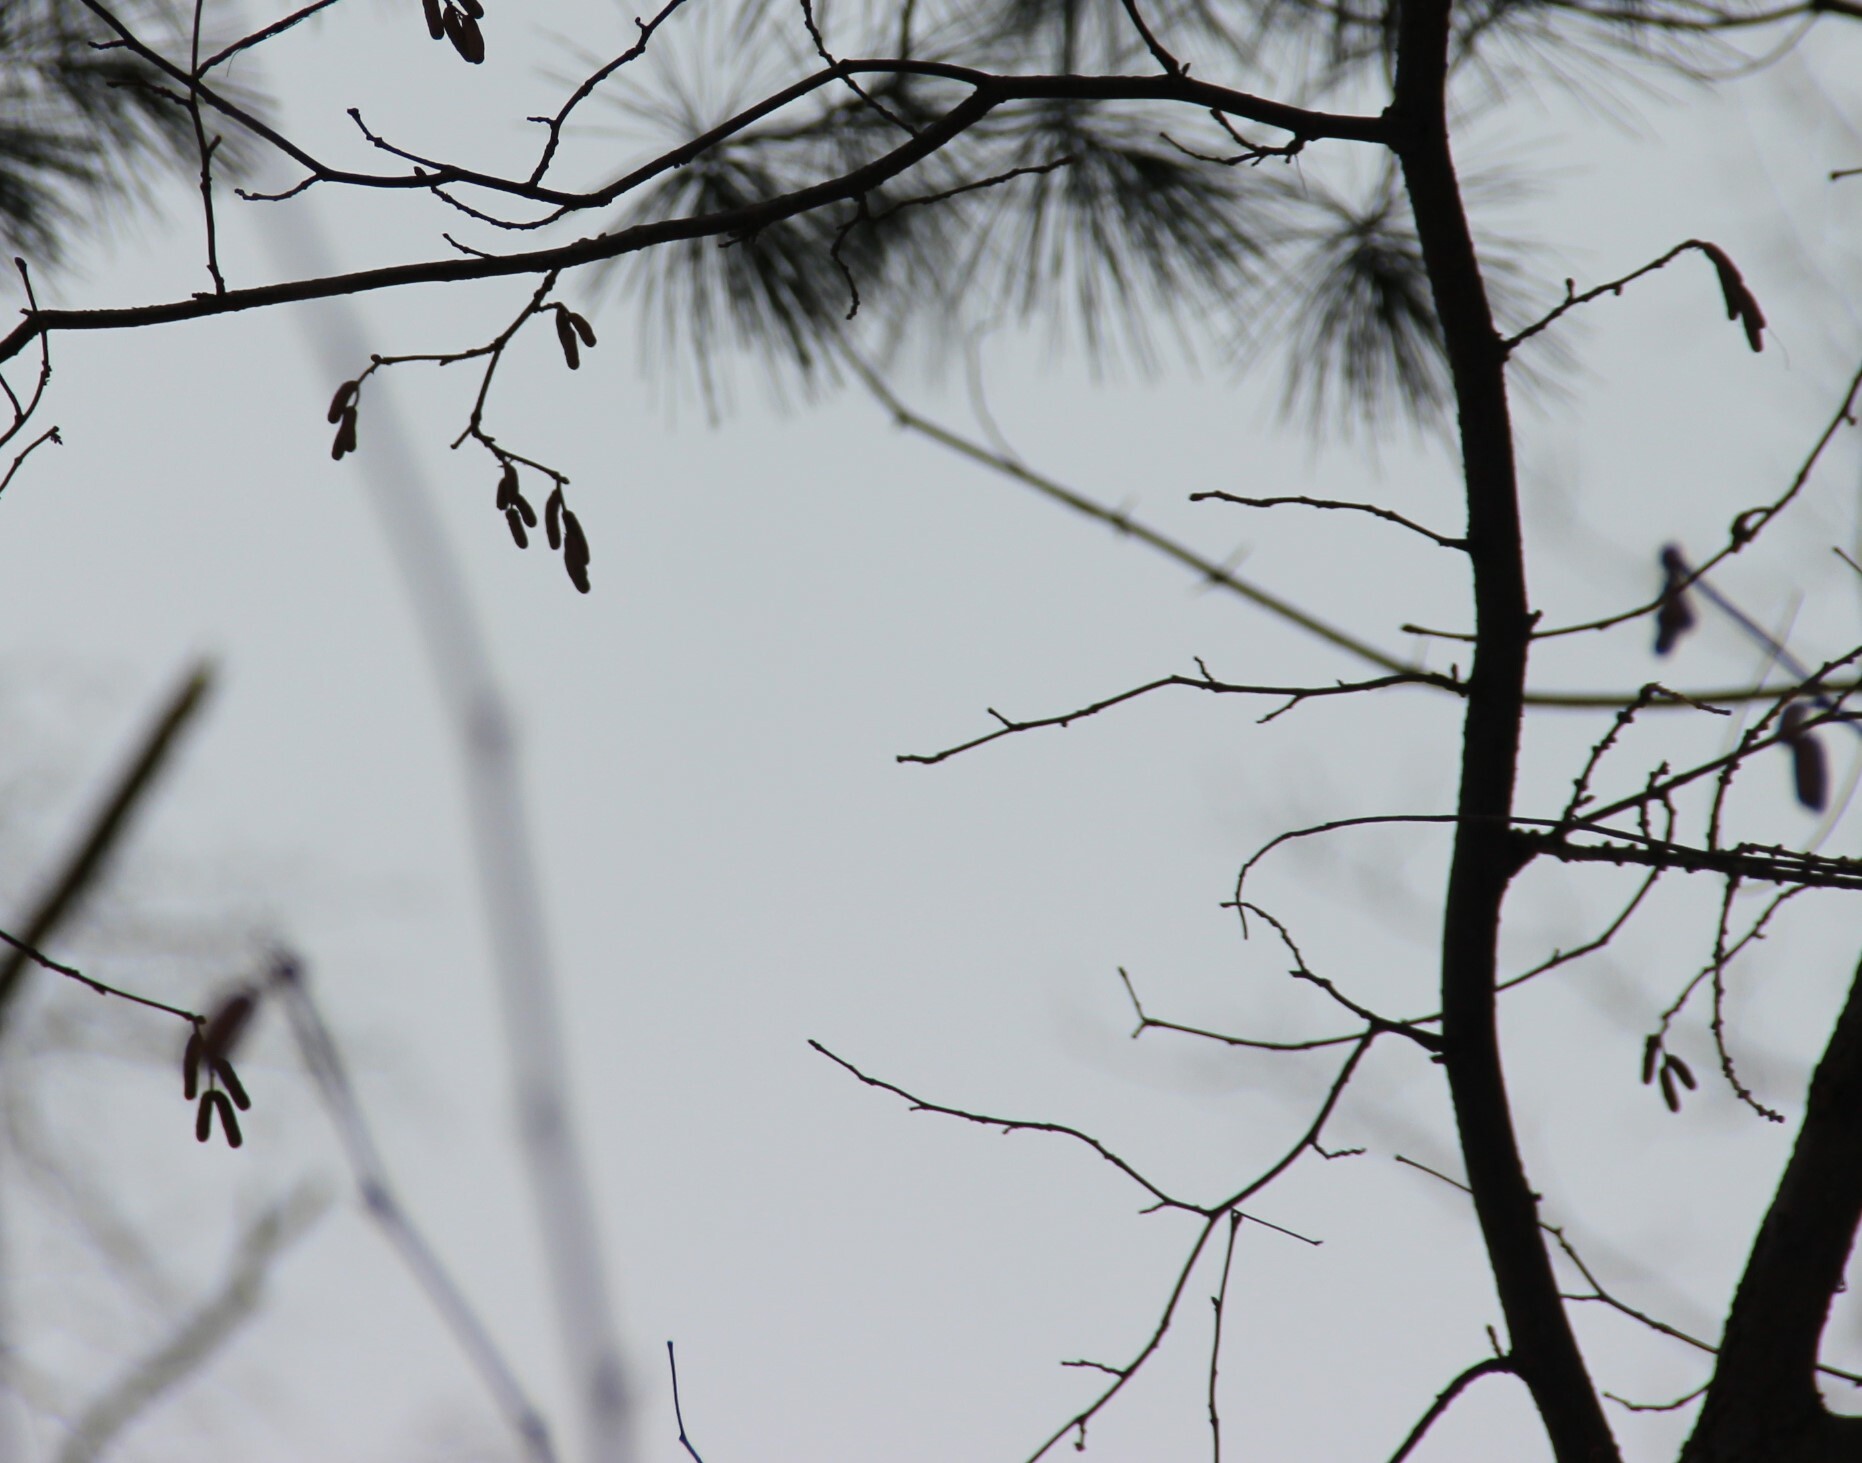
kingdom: Plantae
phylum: Tracheophyta
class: Magnoliopsida
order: Fagales
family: Betulaceae
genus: Corylus
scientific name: Corylus avellana
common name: European hazel
